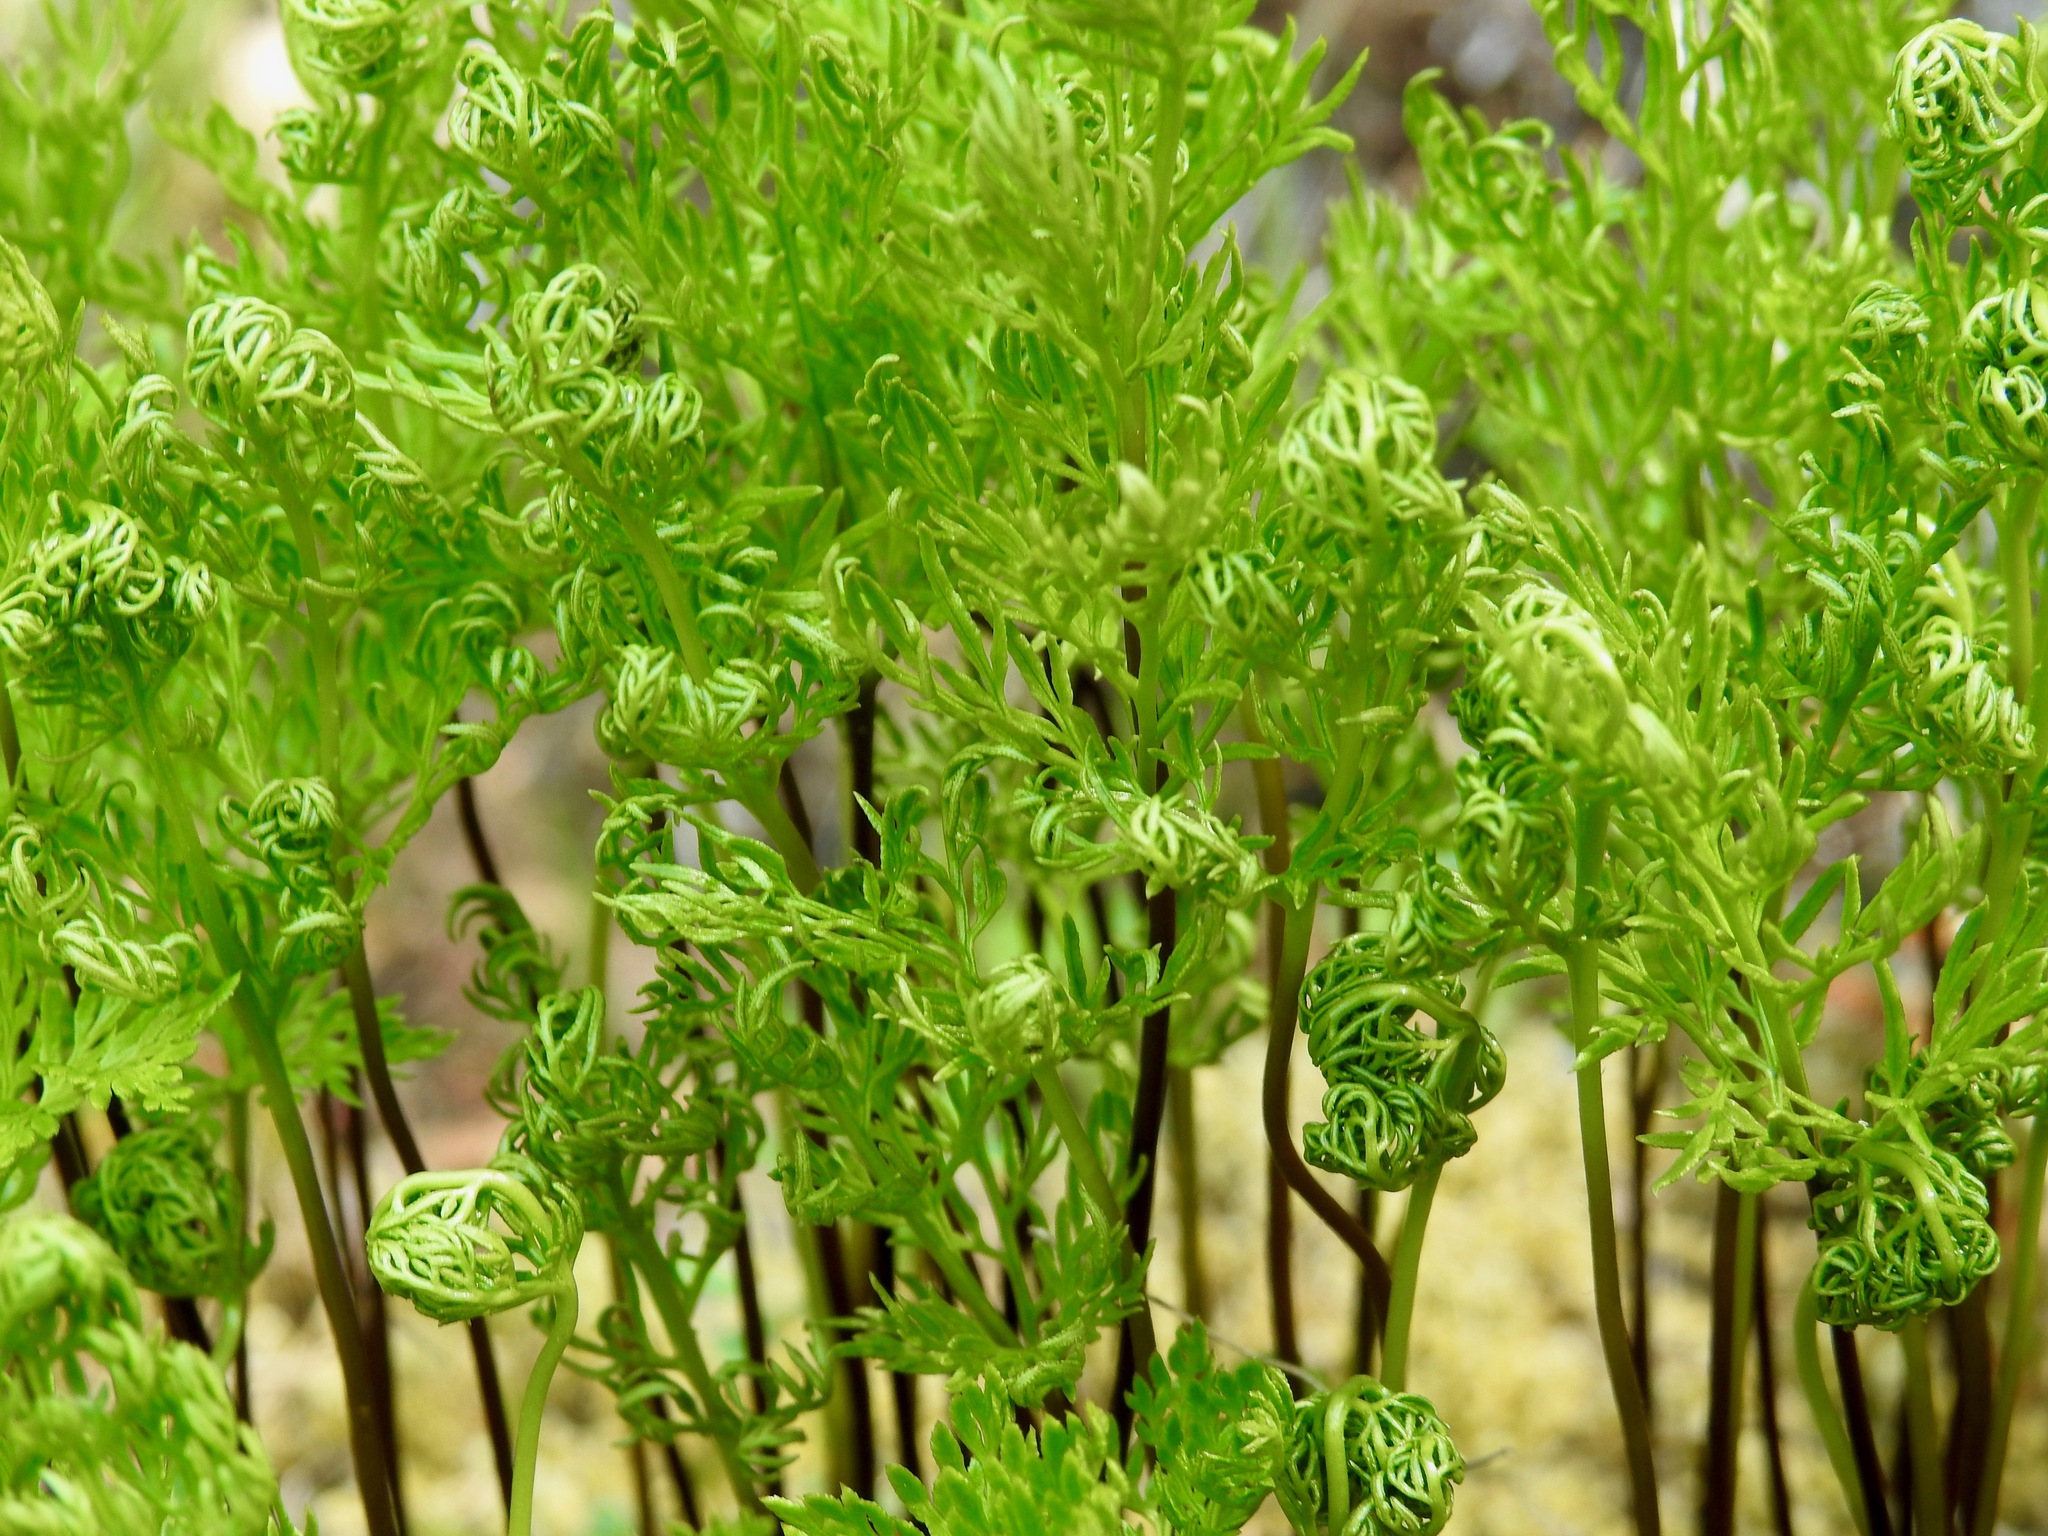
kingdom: Plantae
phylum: Tracheophyta
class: Polypodiopsida
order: Polypodiales
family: Pteridaceae
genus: Aspidotis
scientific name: Aspidotis densa
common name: Indian's dream
